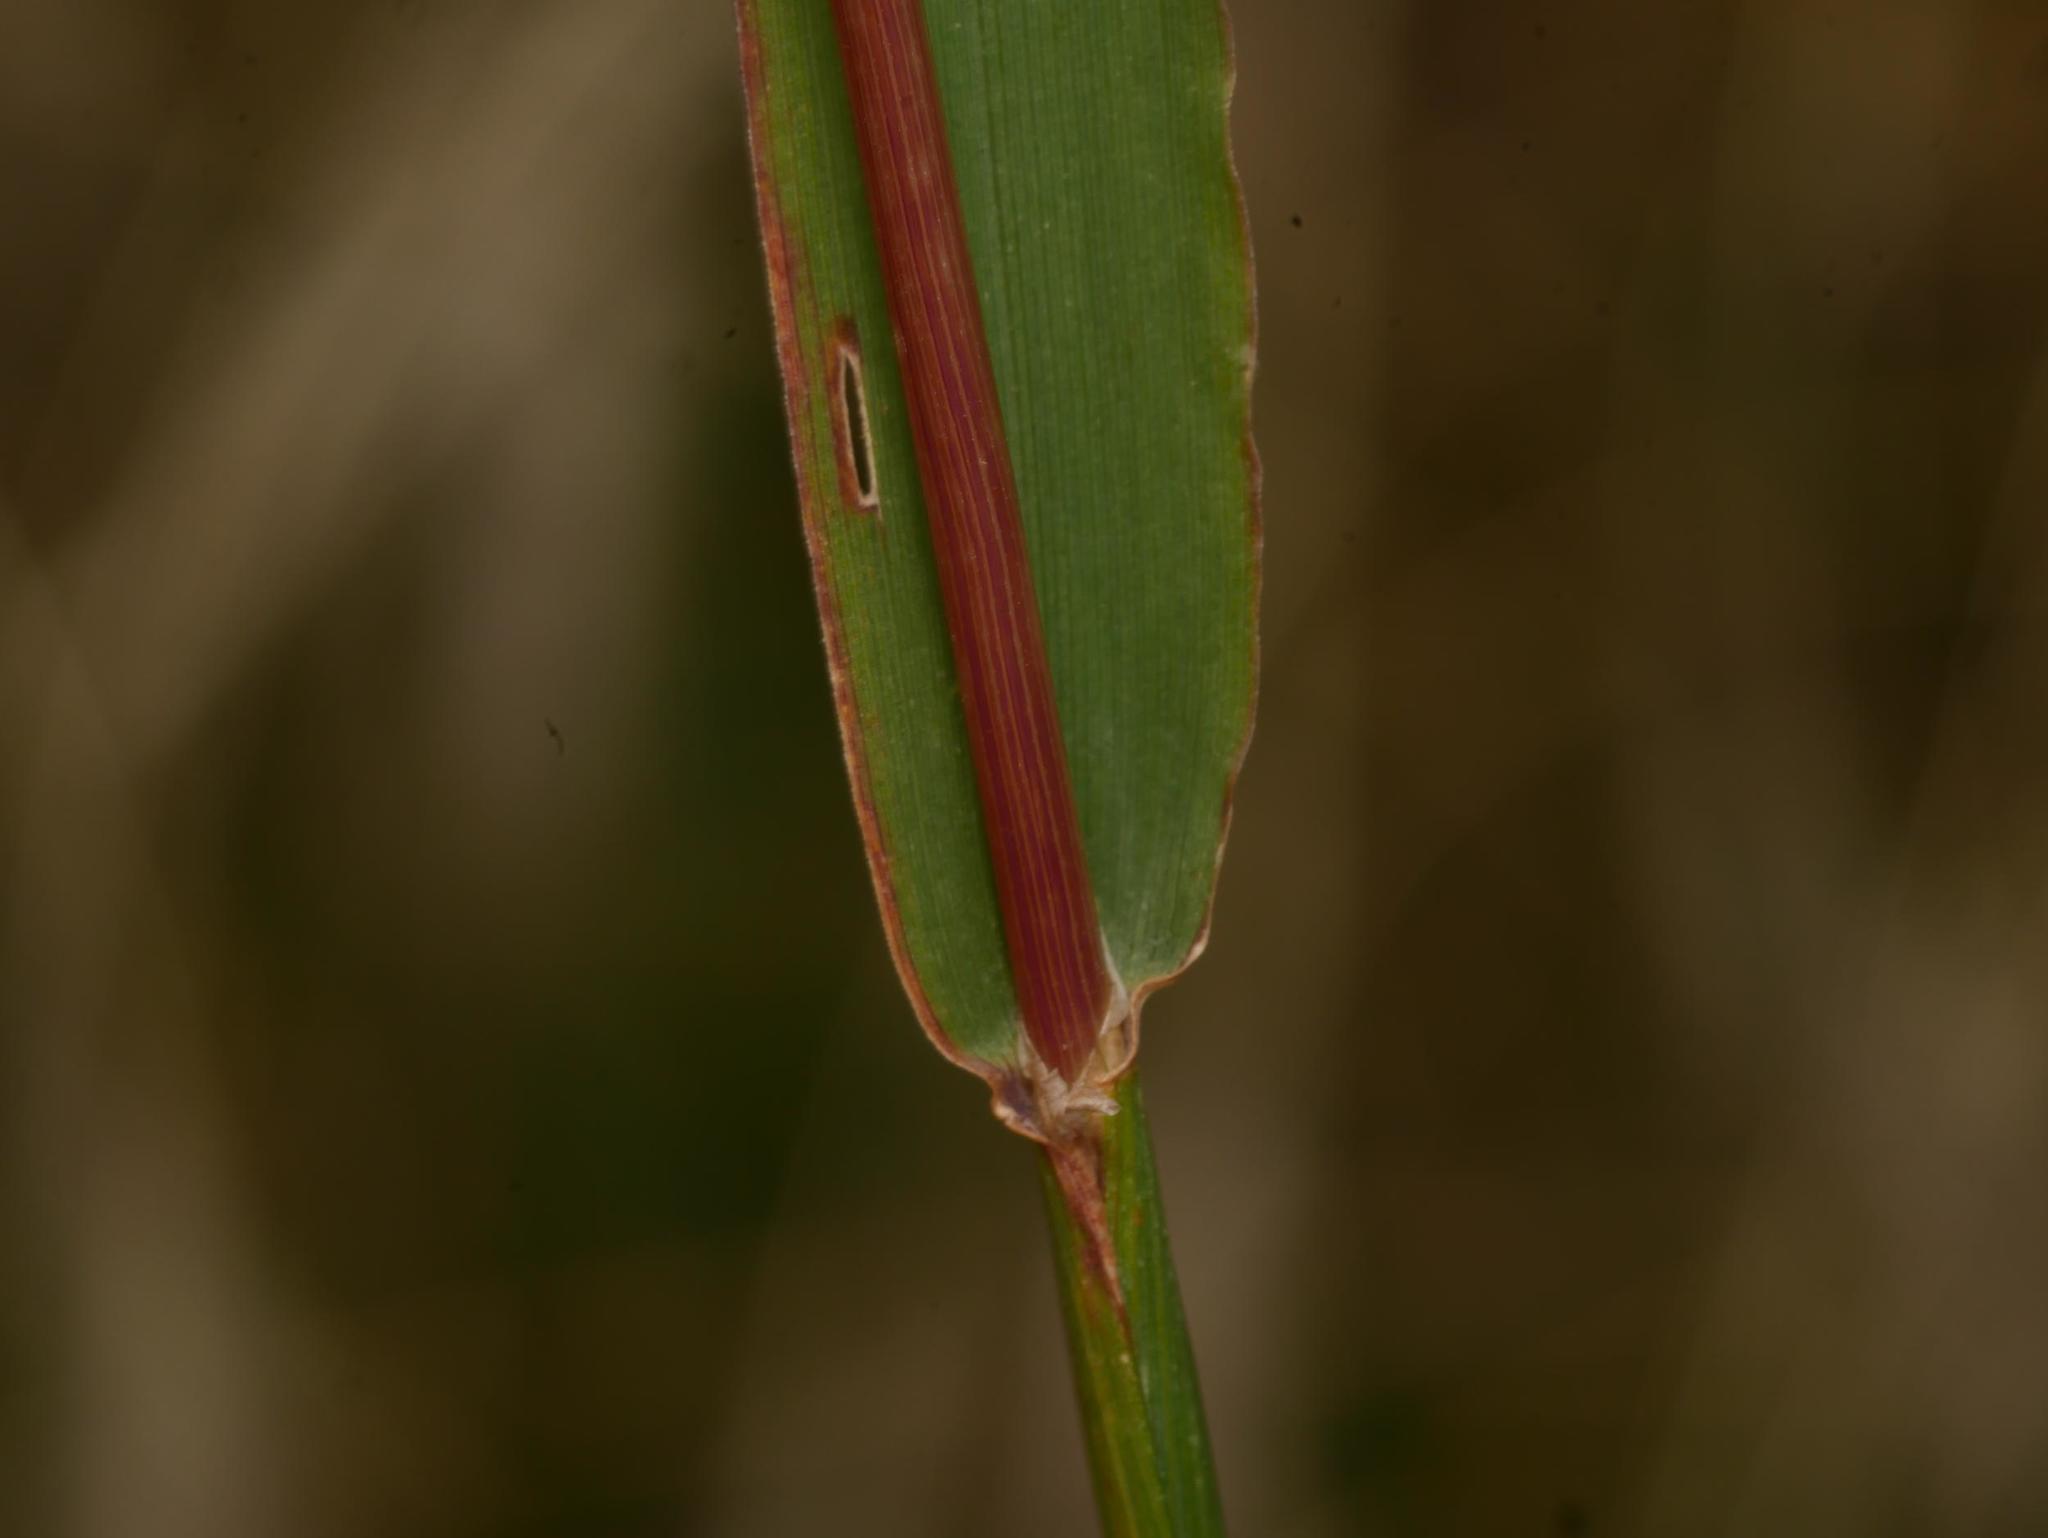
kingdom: Plantae
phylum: Tracheophyta
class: Liliopsida
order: Poales
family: Poaceae
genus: Phleum
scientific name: Phleum pratense
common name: Timothy grass
